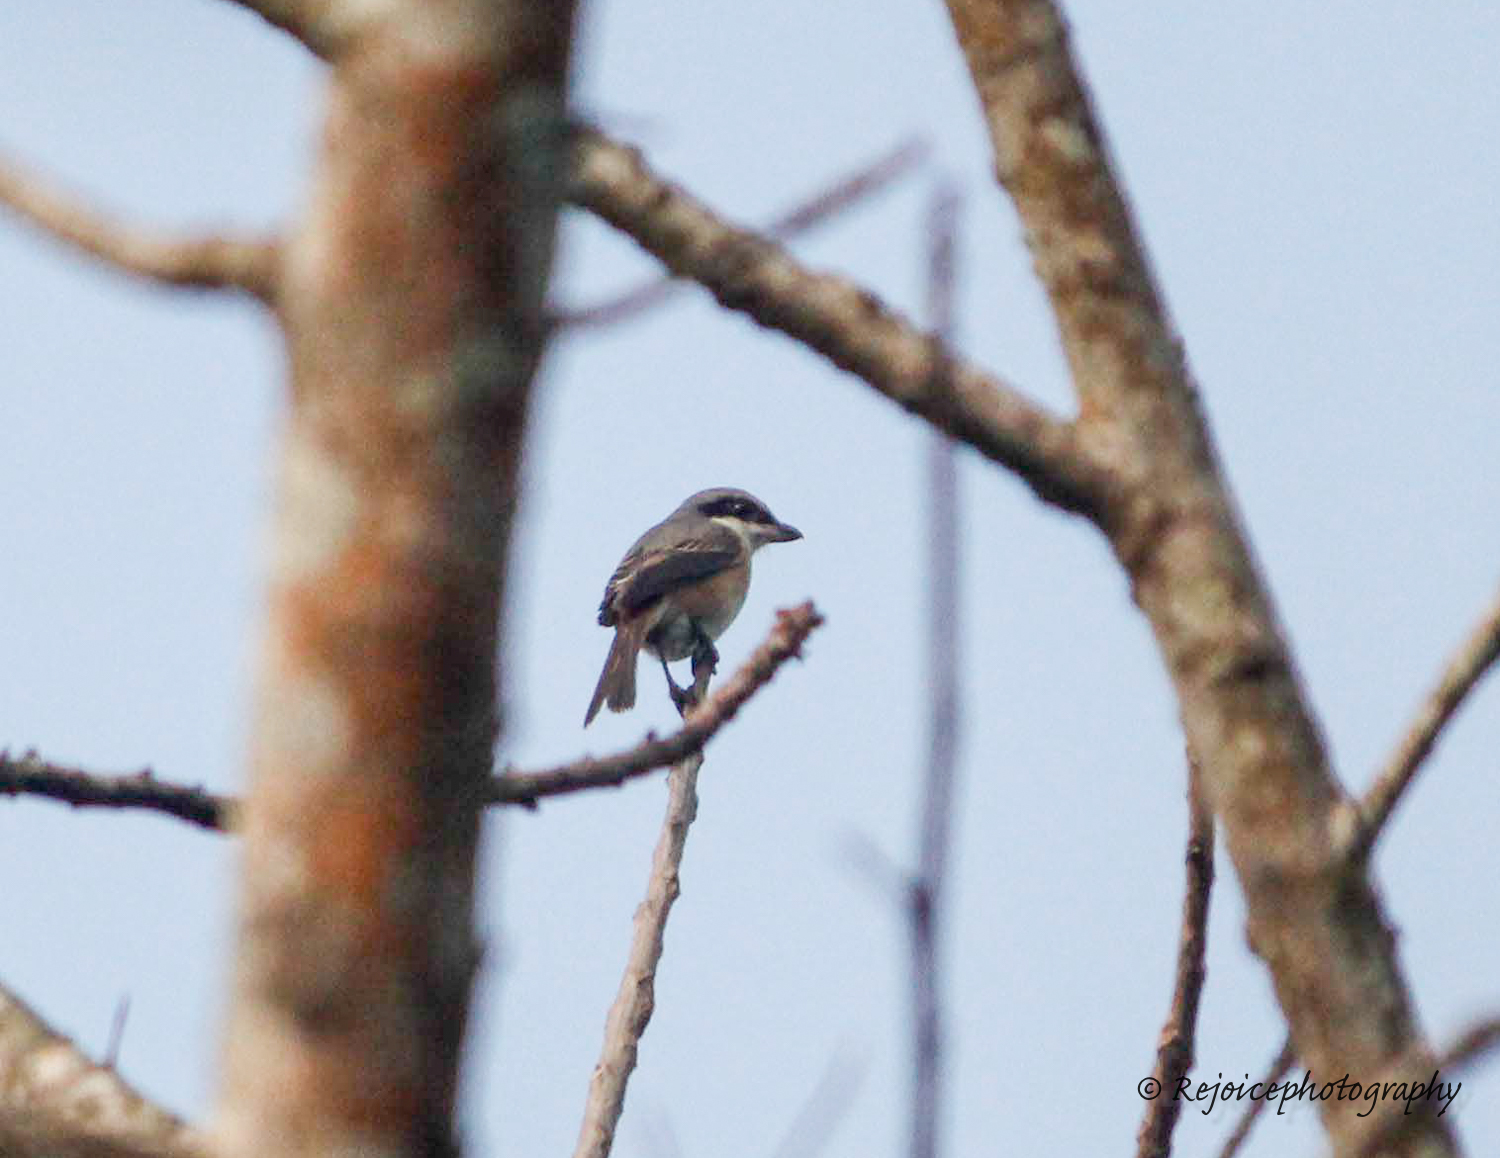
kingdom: Animalia
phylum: Chordata
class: Aves
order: Passeriformes
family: Laniidae
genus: Lanius
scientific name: Lanius tephronotus
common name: Grey-backed shrike
